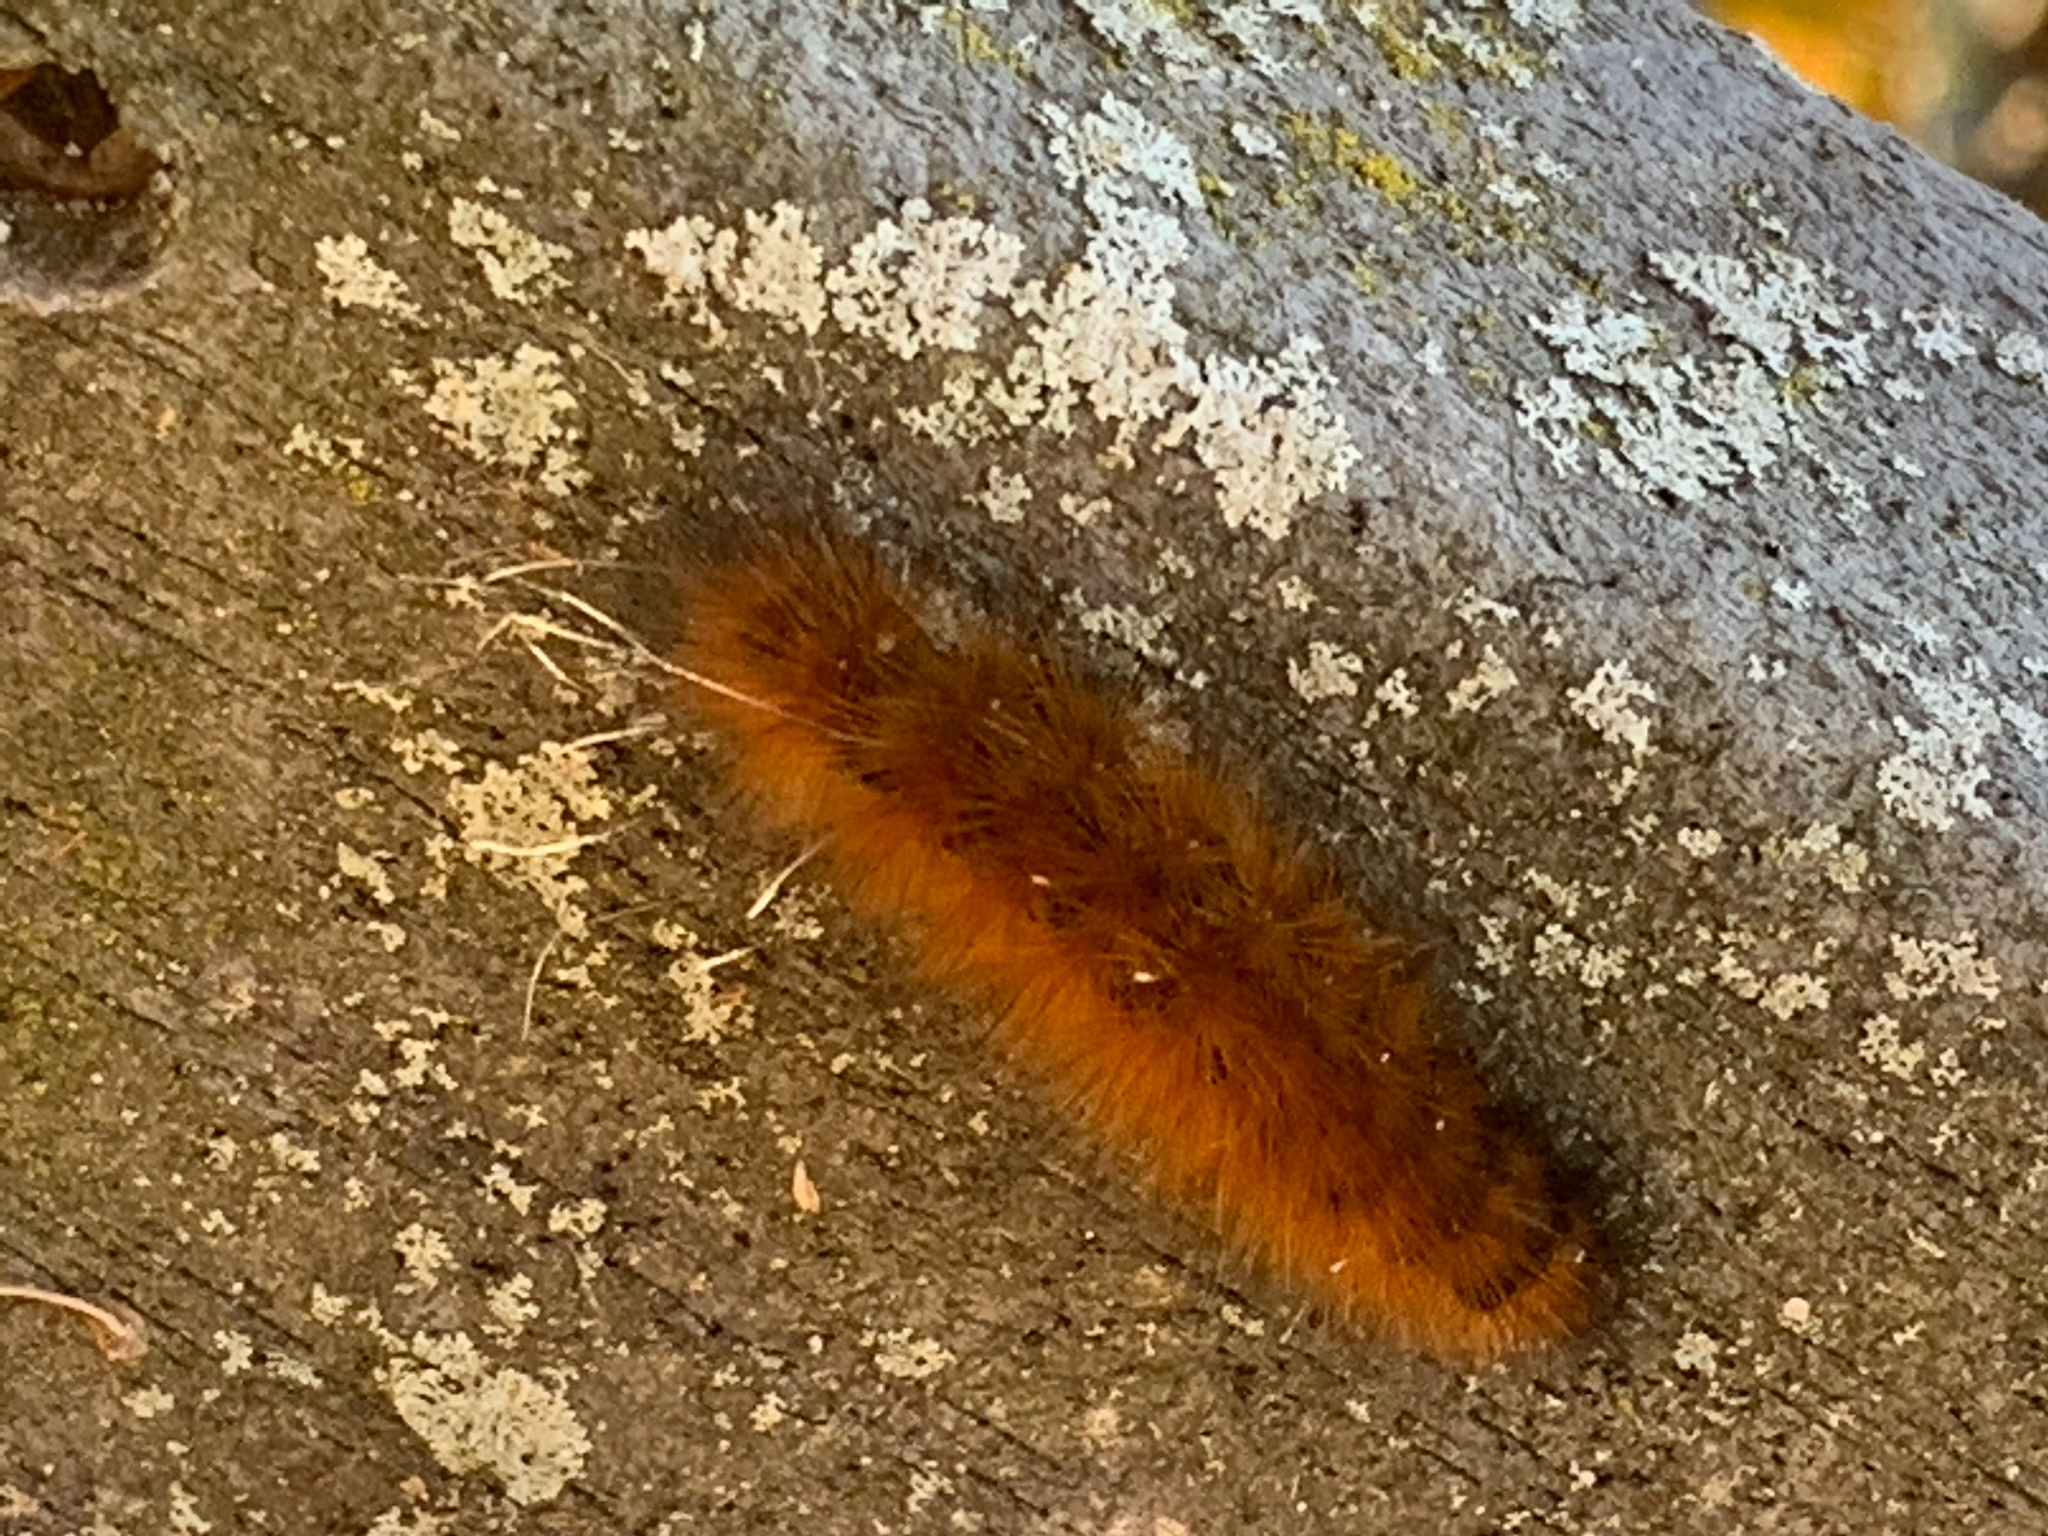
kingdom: Animalia
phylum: Arthropoda
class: Insecta
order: Lepidoptera
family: Erebidae
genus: Spilosoma
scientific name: Spilosoma virginica
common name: Virginia tiger moth
